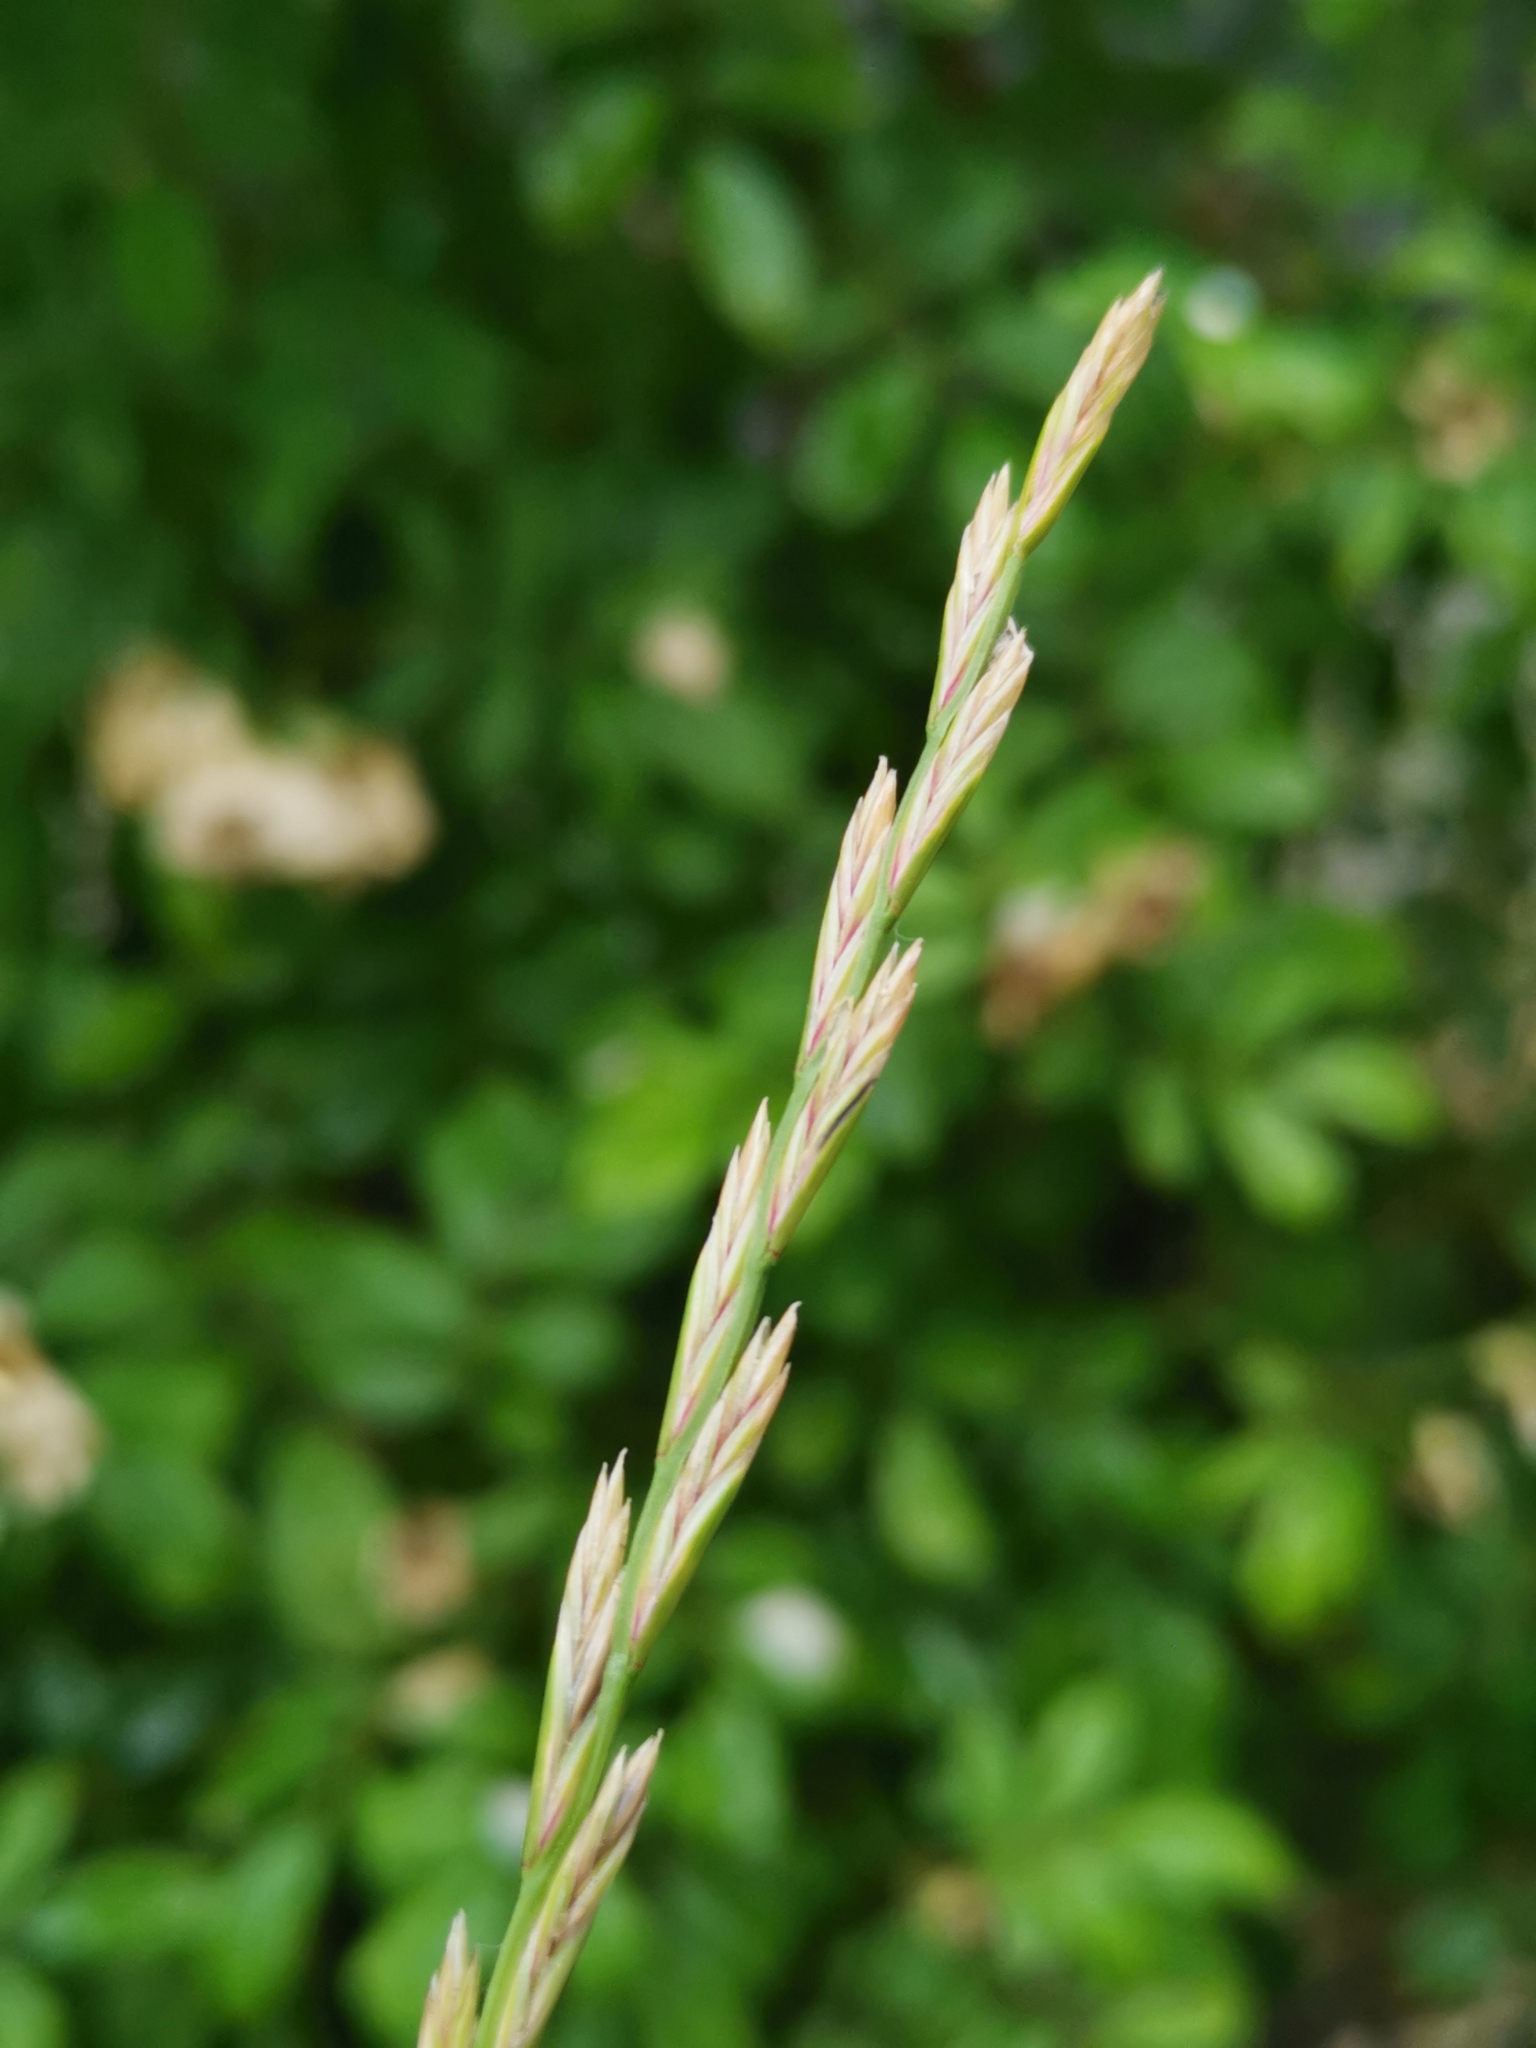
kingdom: Plantae
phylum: Tracheophyta
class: Liliopsida
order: Poales
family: Poaceae
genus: Lolium
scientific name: Lolium perenne
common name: Perennial ryegrass
